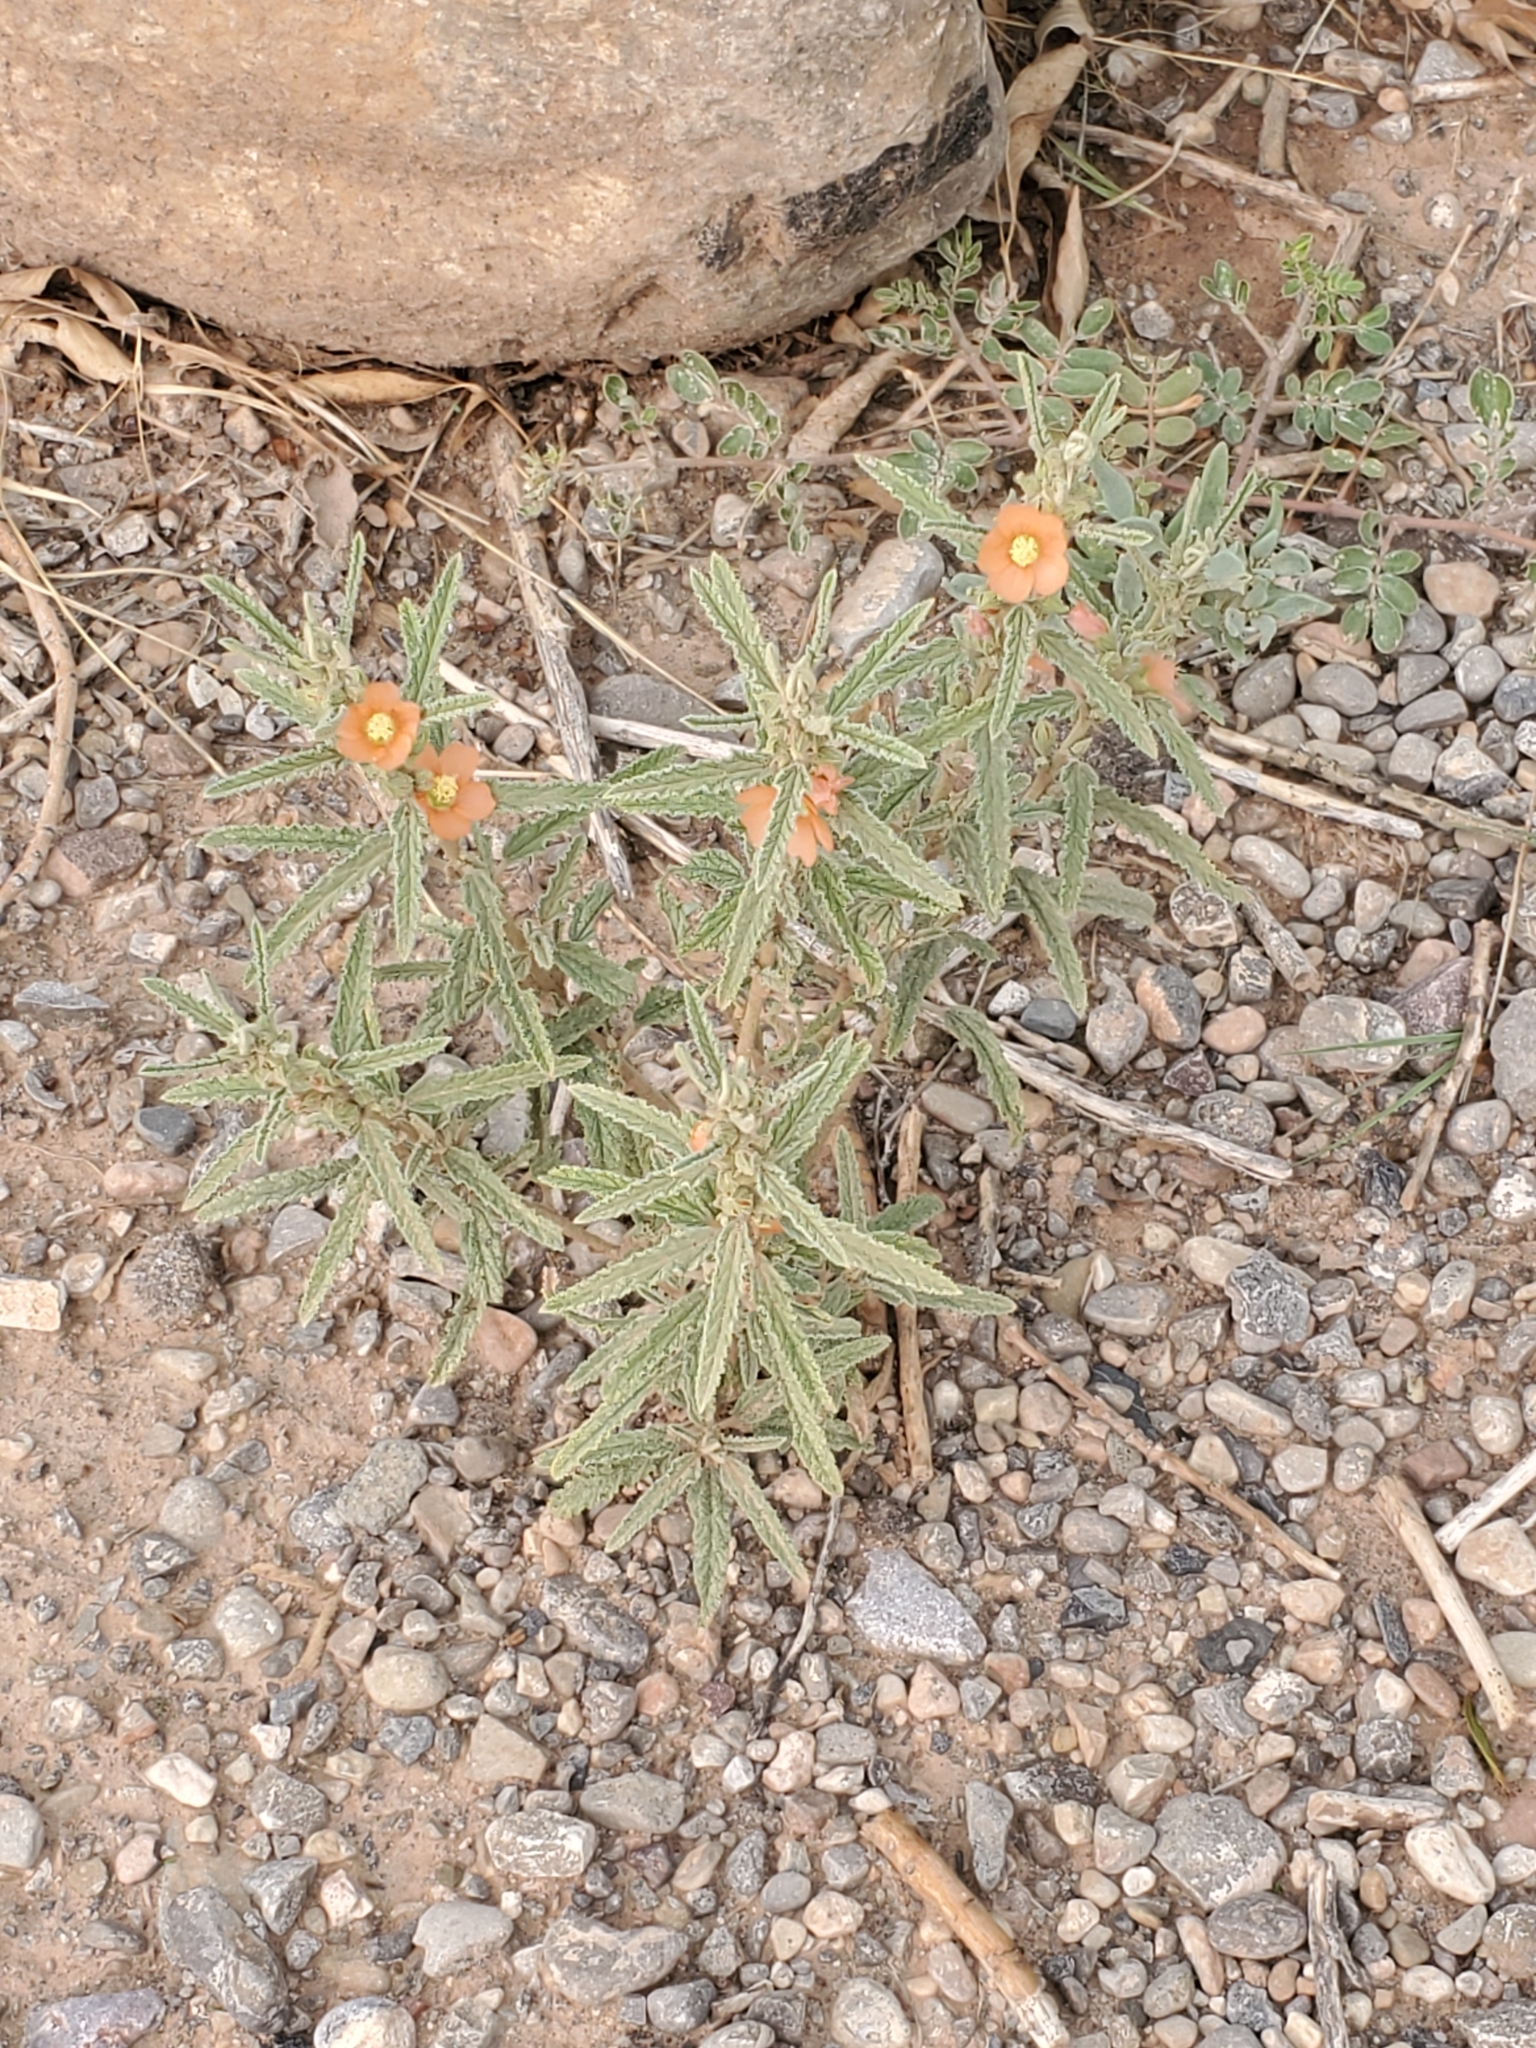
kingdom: Plantae
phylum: Tracheophyta
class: Magnoliopsida
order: Malvales
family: Malvaceae
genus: Sphaeralcea
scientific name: Sphaeralcea angustifolia
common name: Copper globe-mallow
